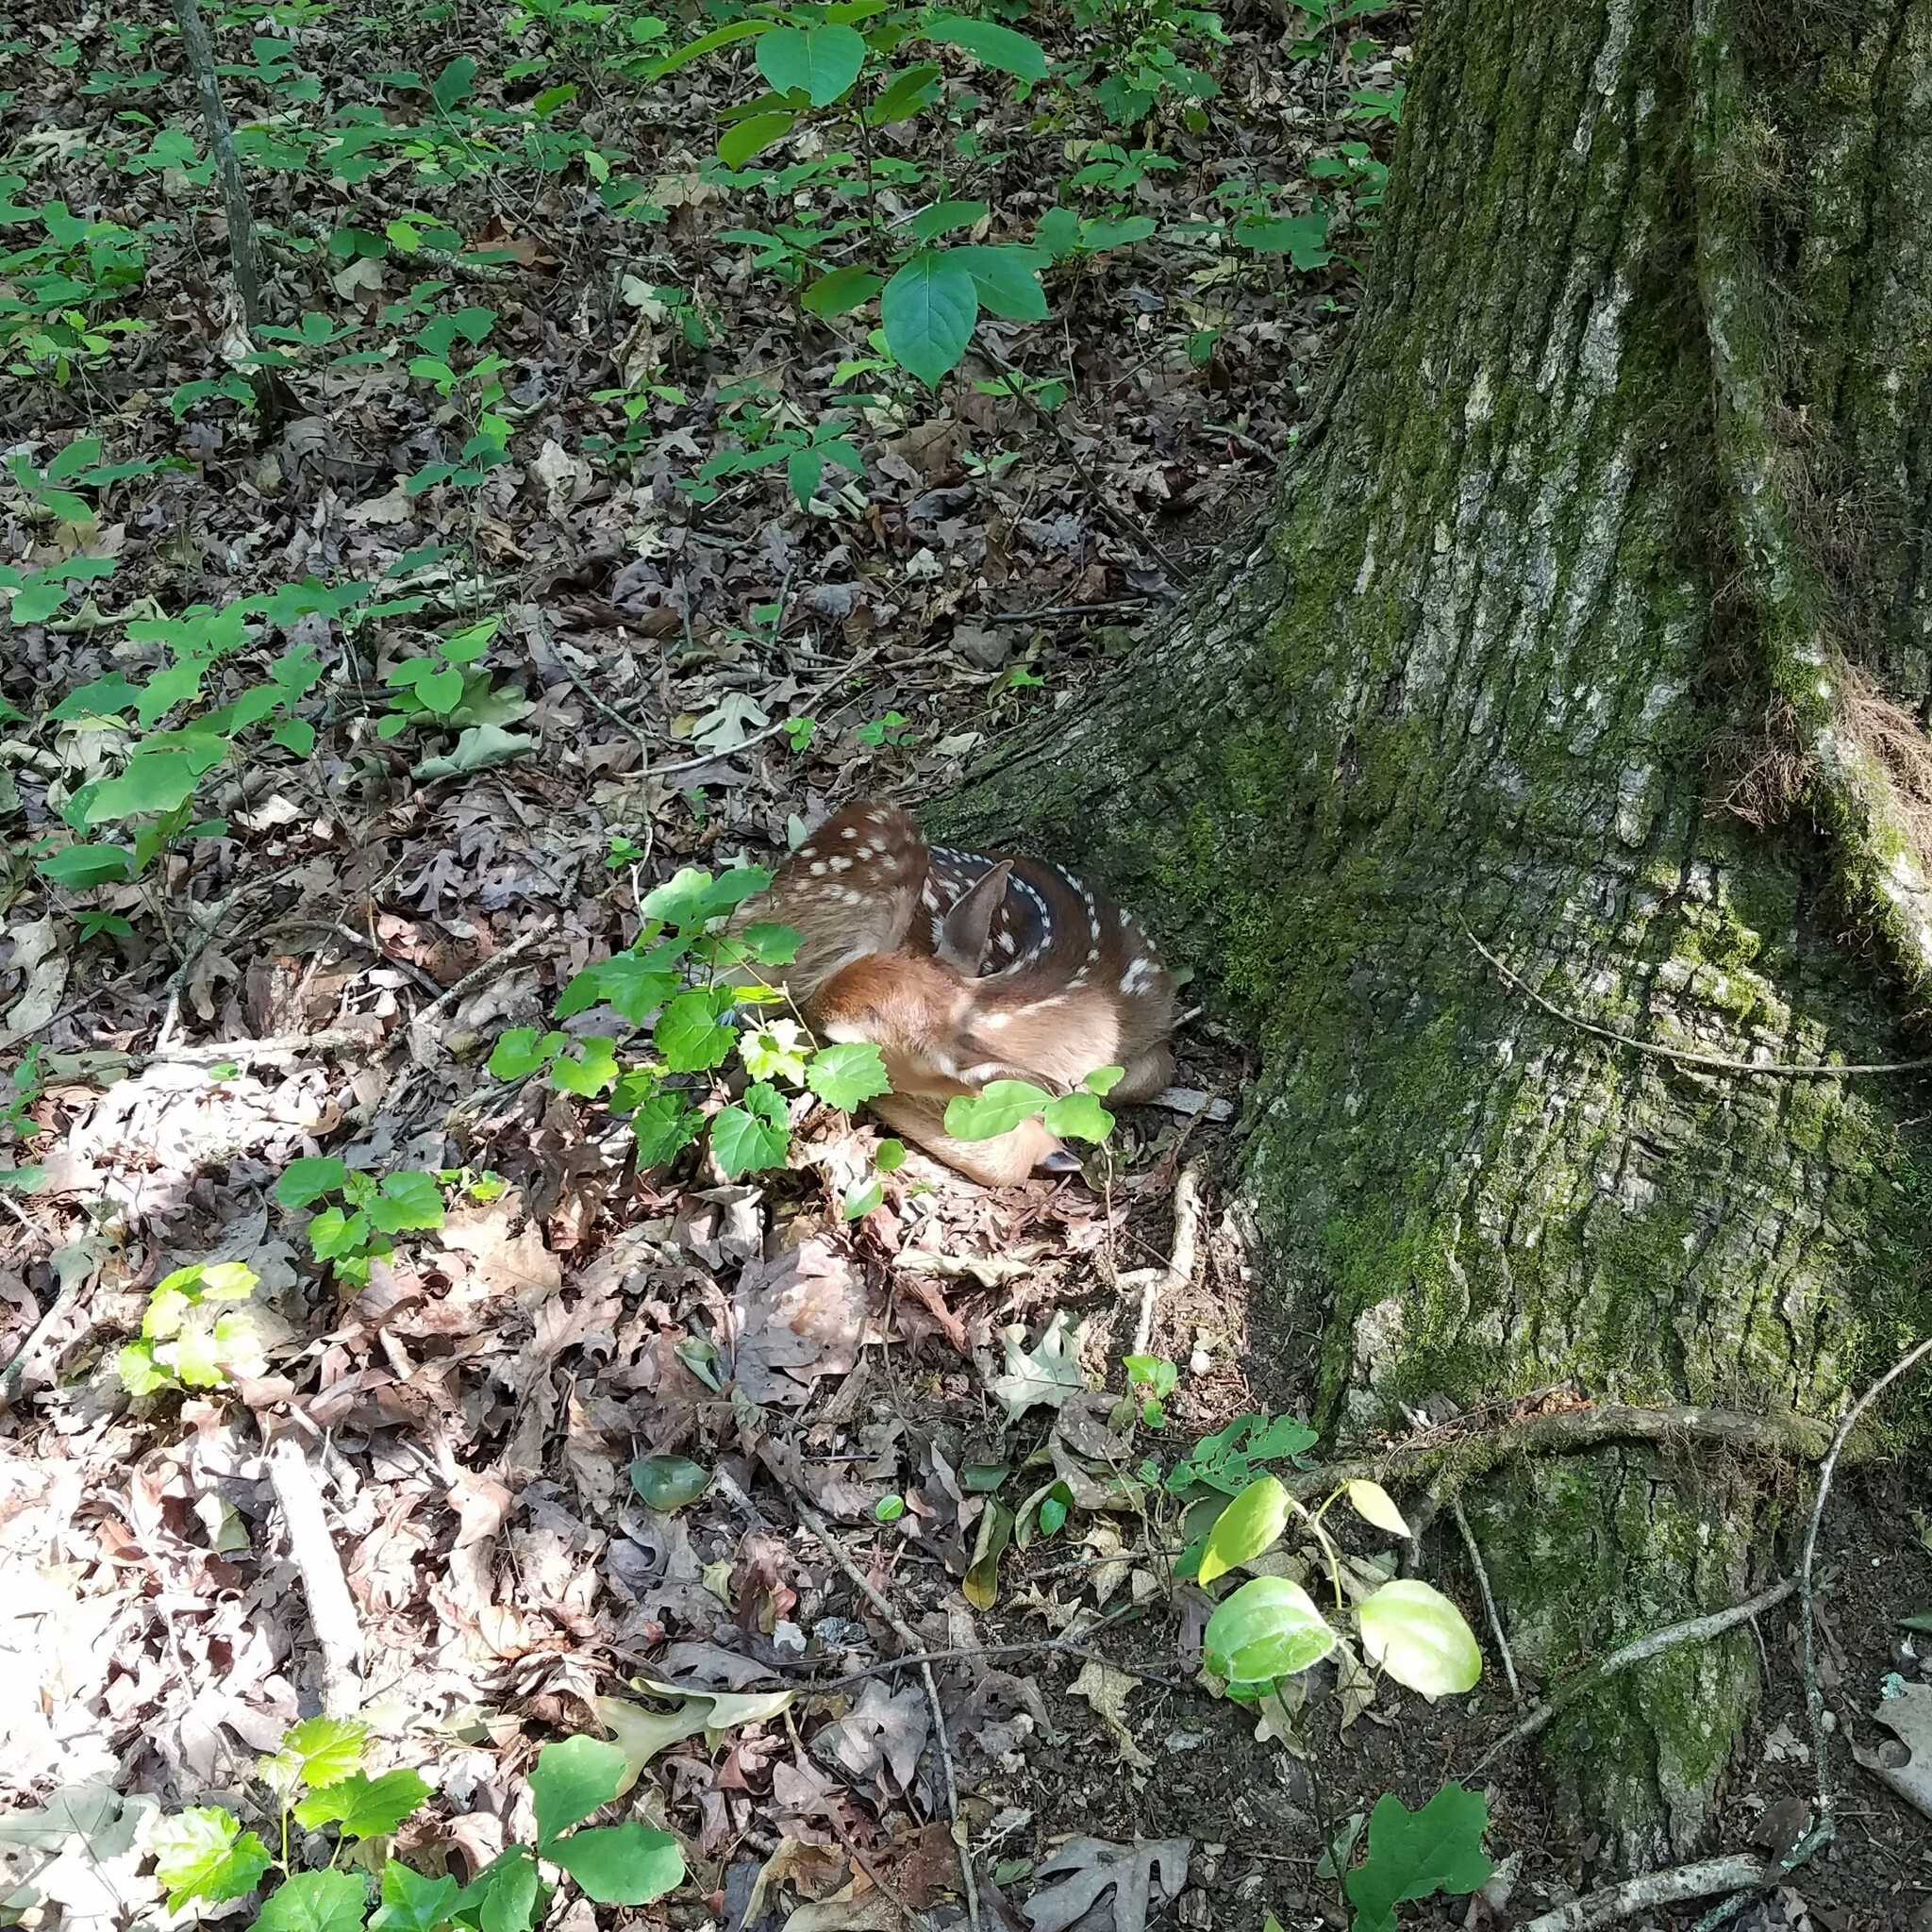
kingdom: Animalia
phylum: Chordata
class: Mammalia
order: Artiodactyla
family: Cervidae
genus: Odocoileus
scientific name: Odocoileus virginianus
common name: White-tailed deer
